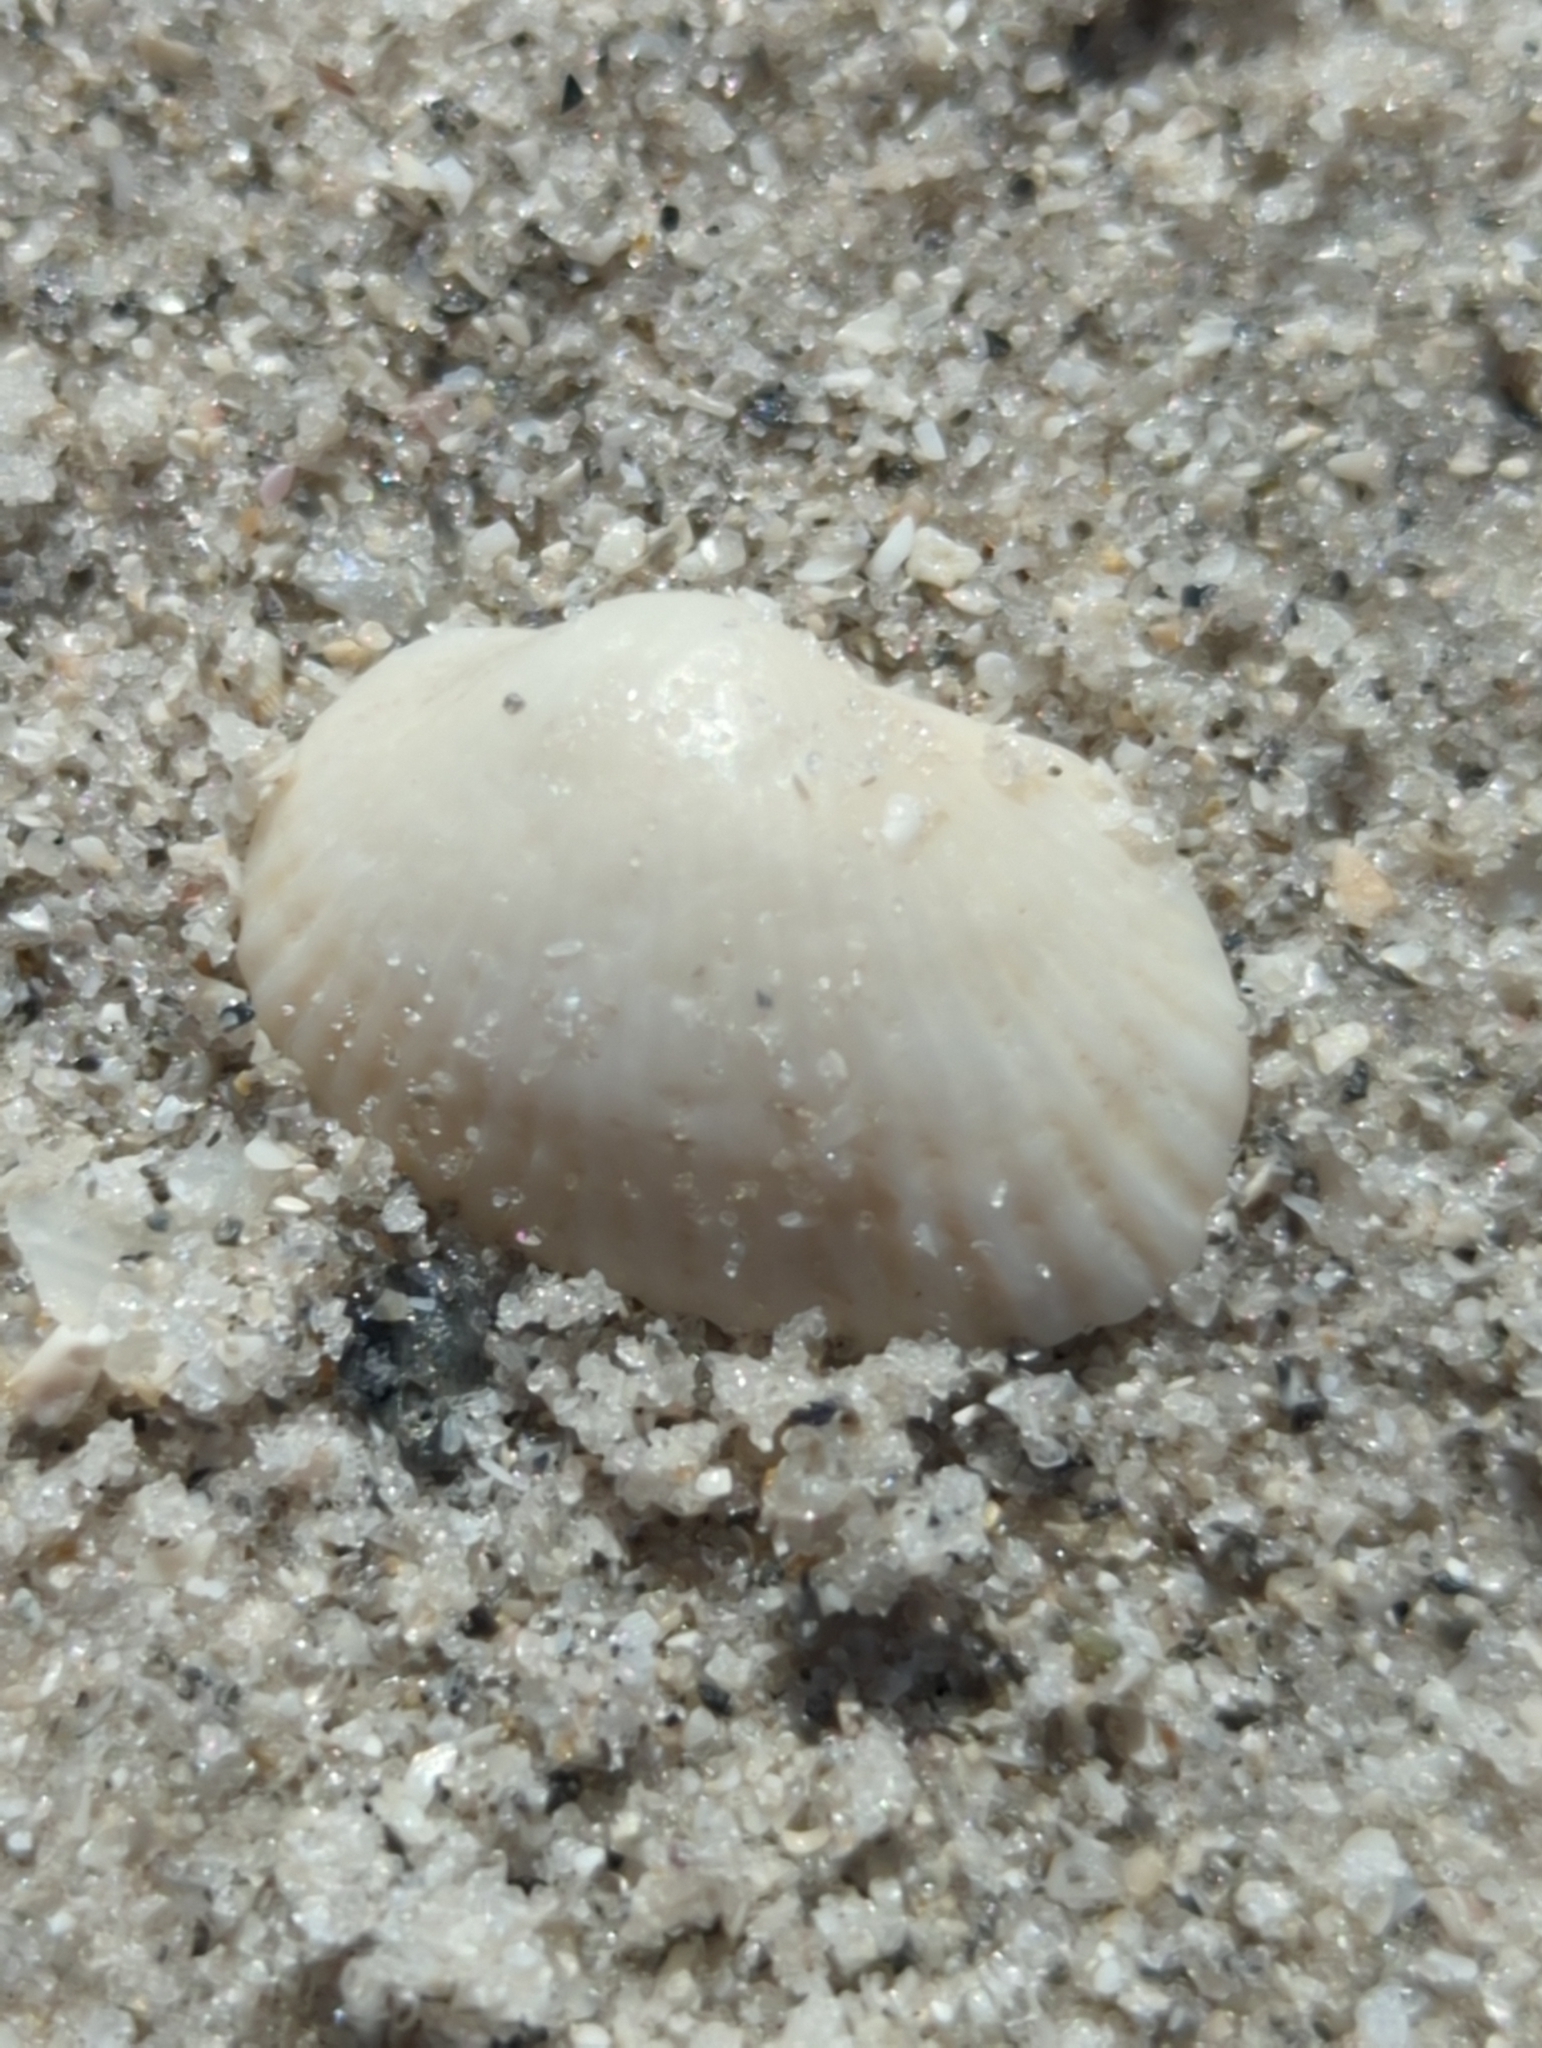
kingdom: Animalia
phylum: Mollusca
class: Bivalvia
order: Arcida
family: Arcidae
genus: Anadara
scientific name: Anadara transversa
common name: Transverse ark
